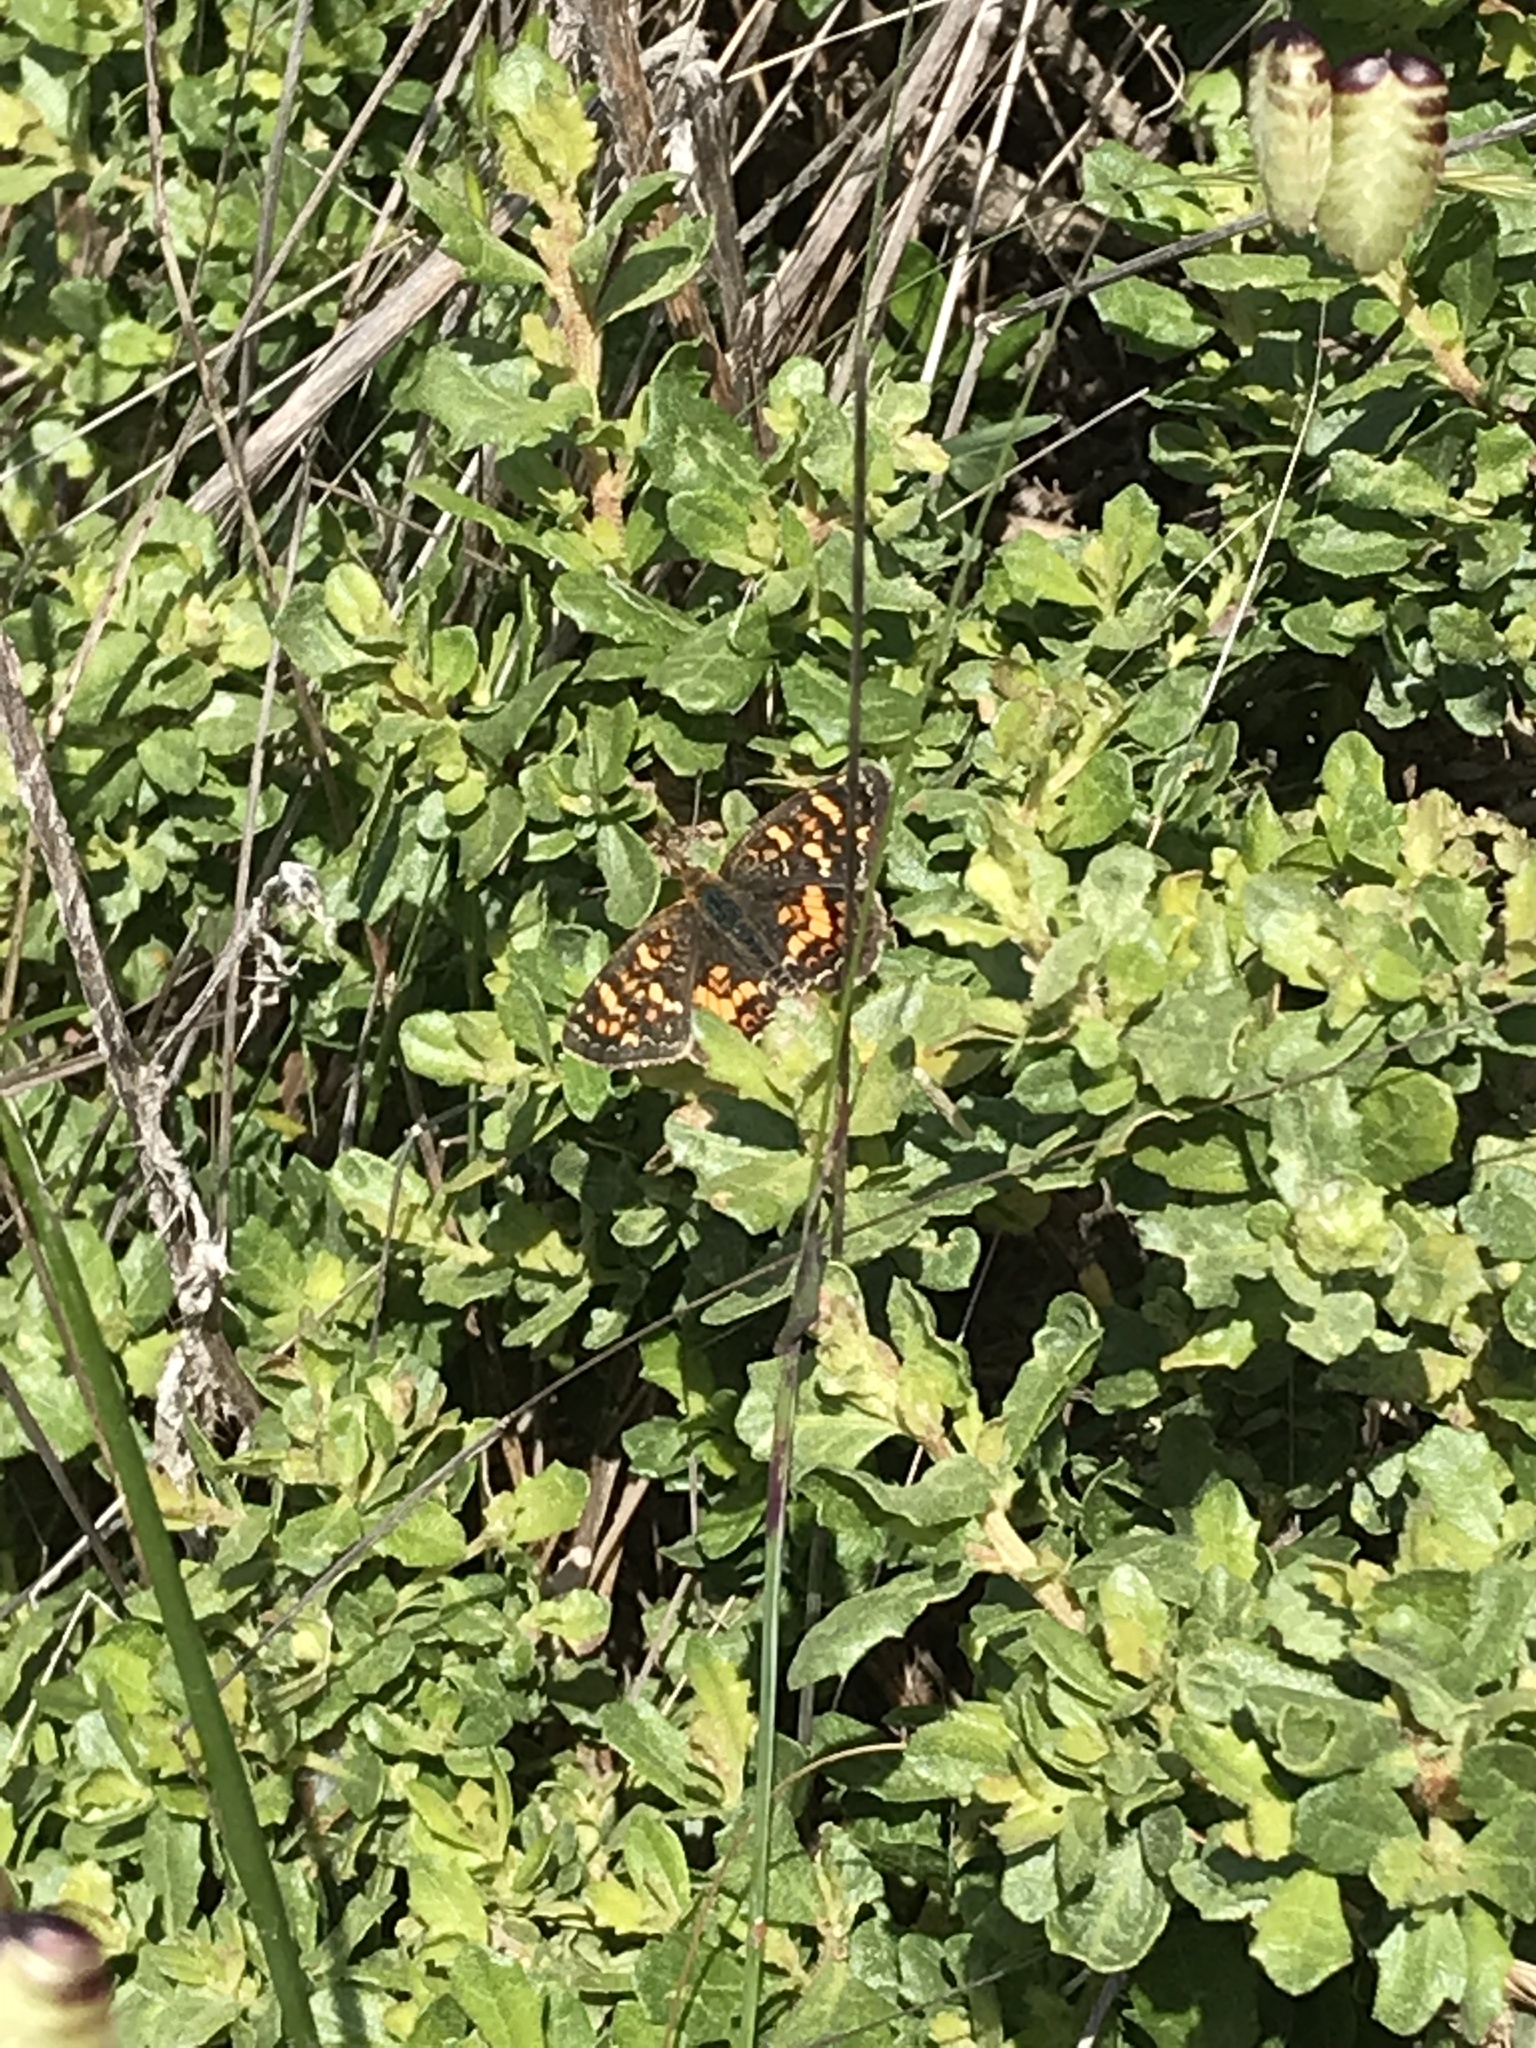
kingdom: Animalia
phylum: Arthropoda
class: Insecta
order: Lepidoptera
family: Nymphalidae
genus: Phyciodes
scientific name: Phyciodes tharos
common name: Pearl crescent
